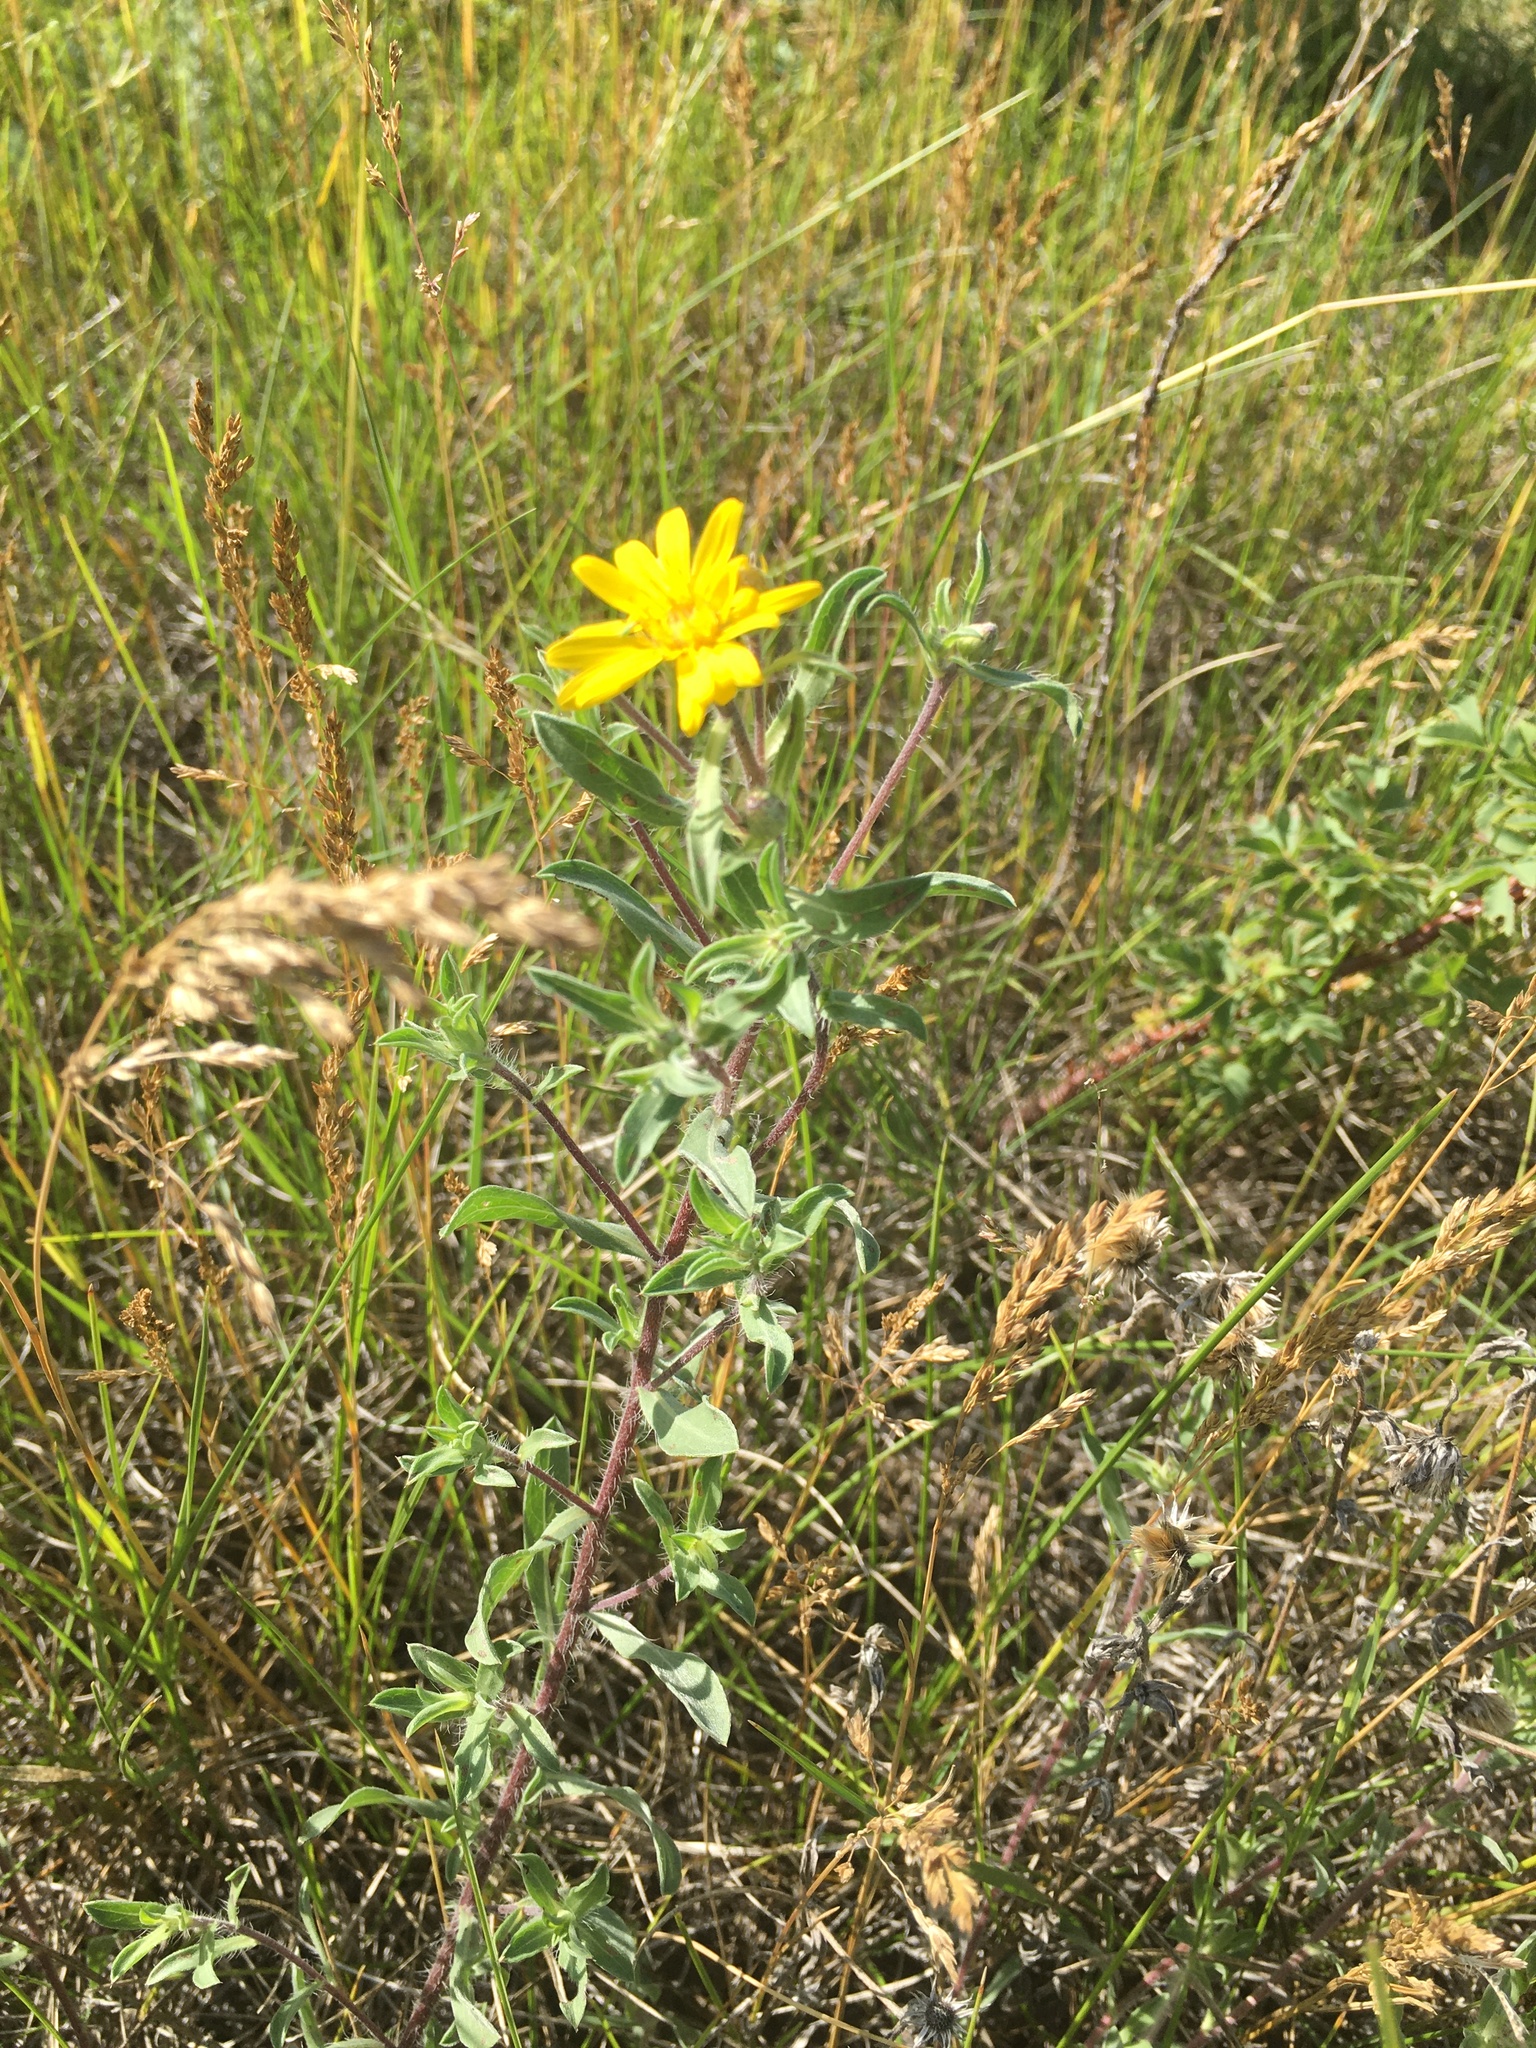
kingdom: Plantae
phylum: Tracheophyta
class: Magnoliopsida
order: Asterales
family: Asteraceae
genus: Heterotheca
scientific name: Heterotheca villosa
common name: Hairy false goldenaster
